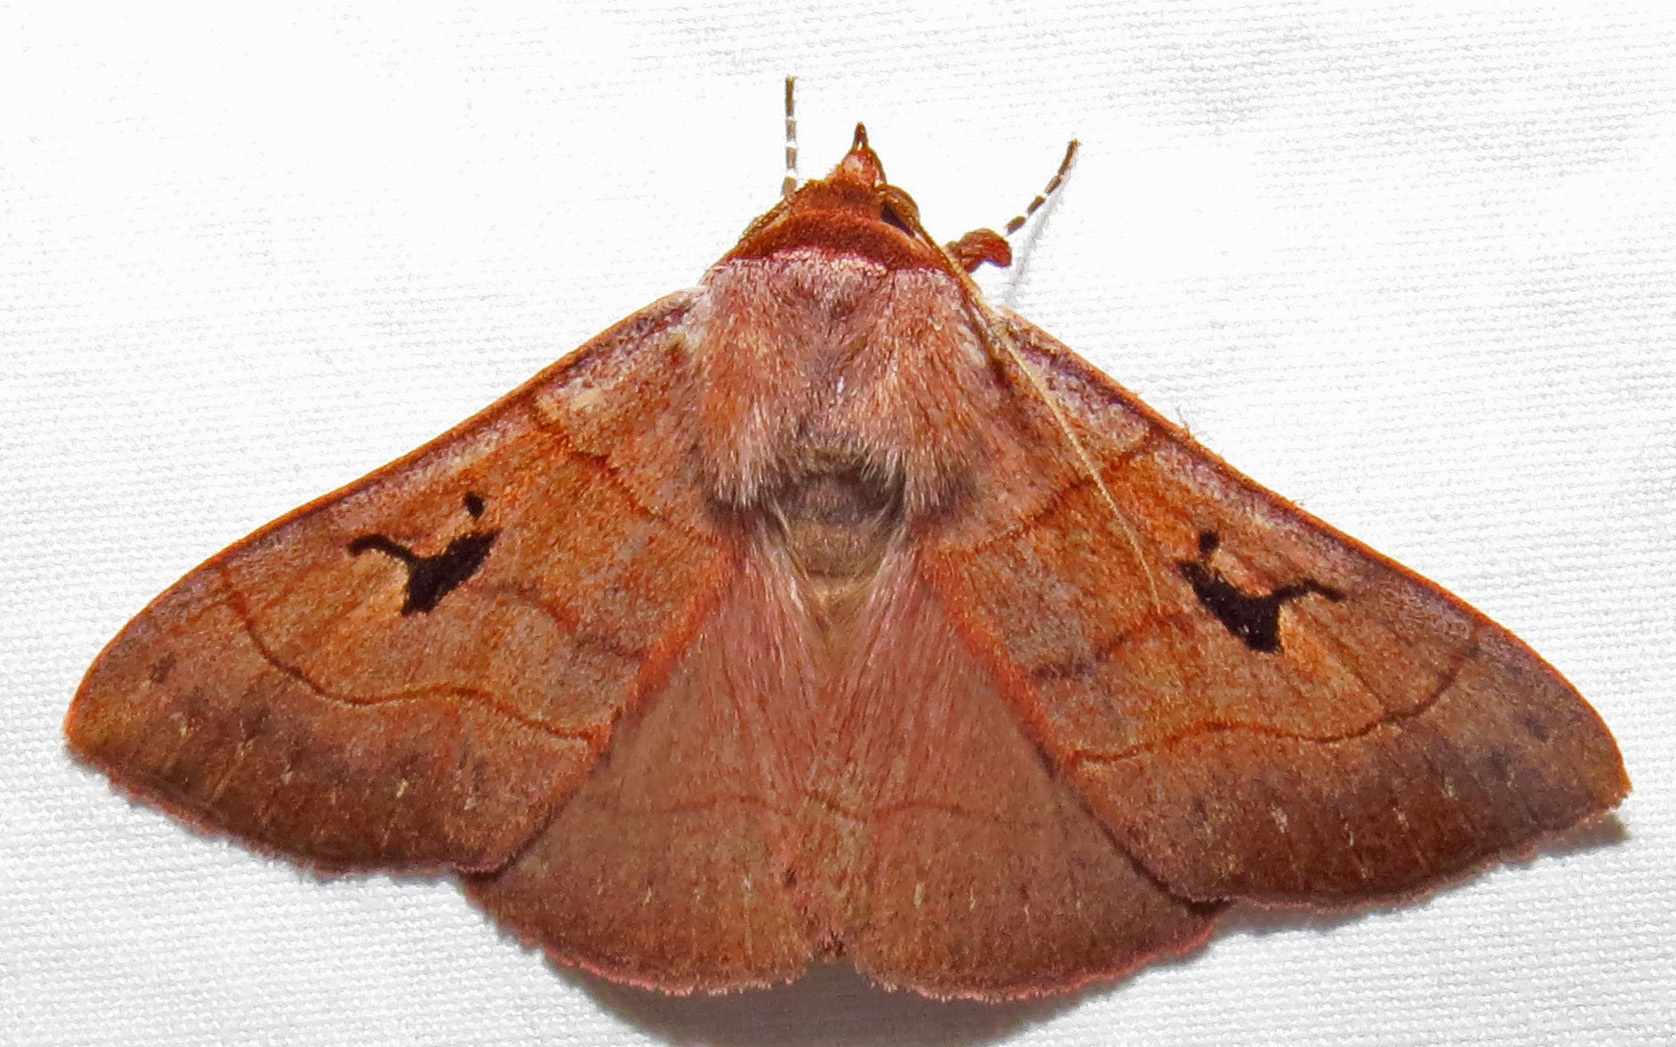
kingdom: Animalia
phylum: Arthropoda
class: Insecta
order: Lepidoptera
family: Erebidae
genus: Panopoda
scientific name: Panopoda carneicosta
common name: Brown panopoda moth
